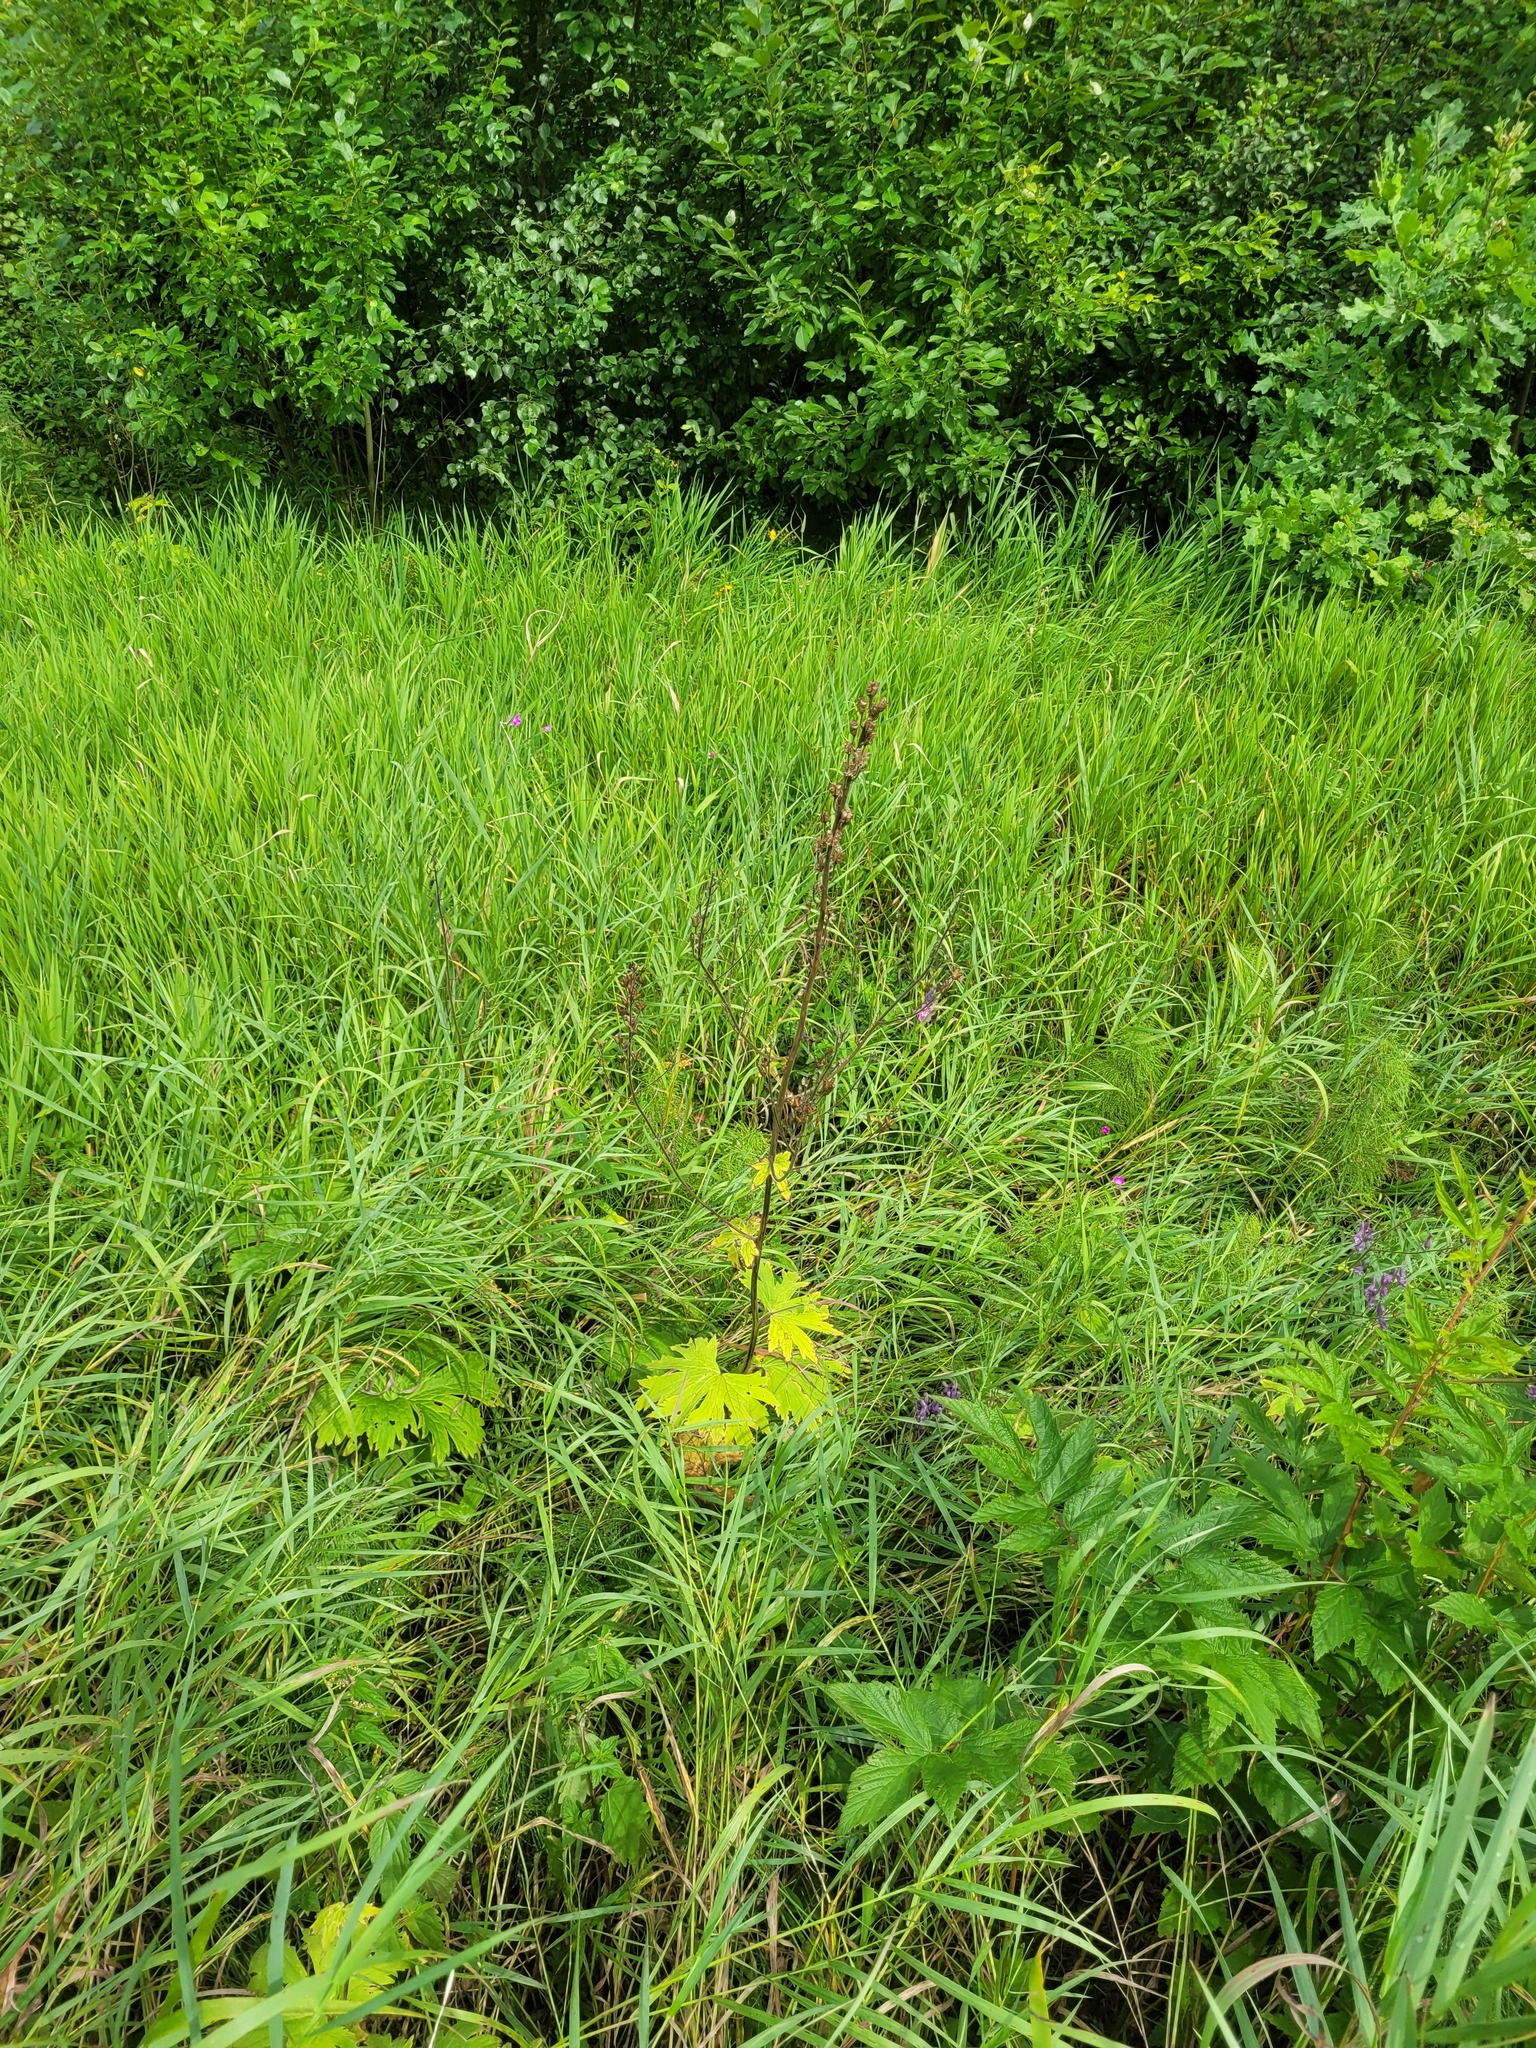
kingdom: Plantae
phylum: Tracheophyta
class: Magnoliopsida
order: Ranunculales
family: Ranunculaceae
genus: Aconitum
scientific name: Aconitum septentrionale
